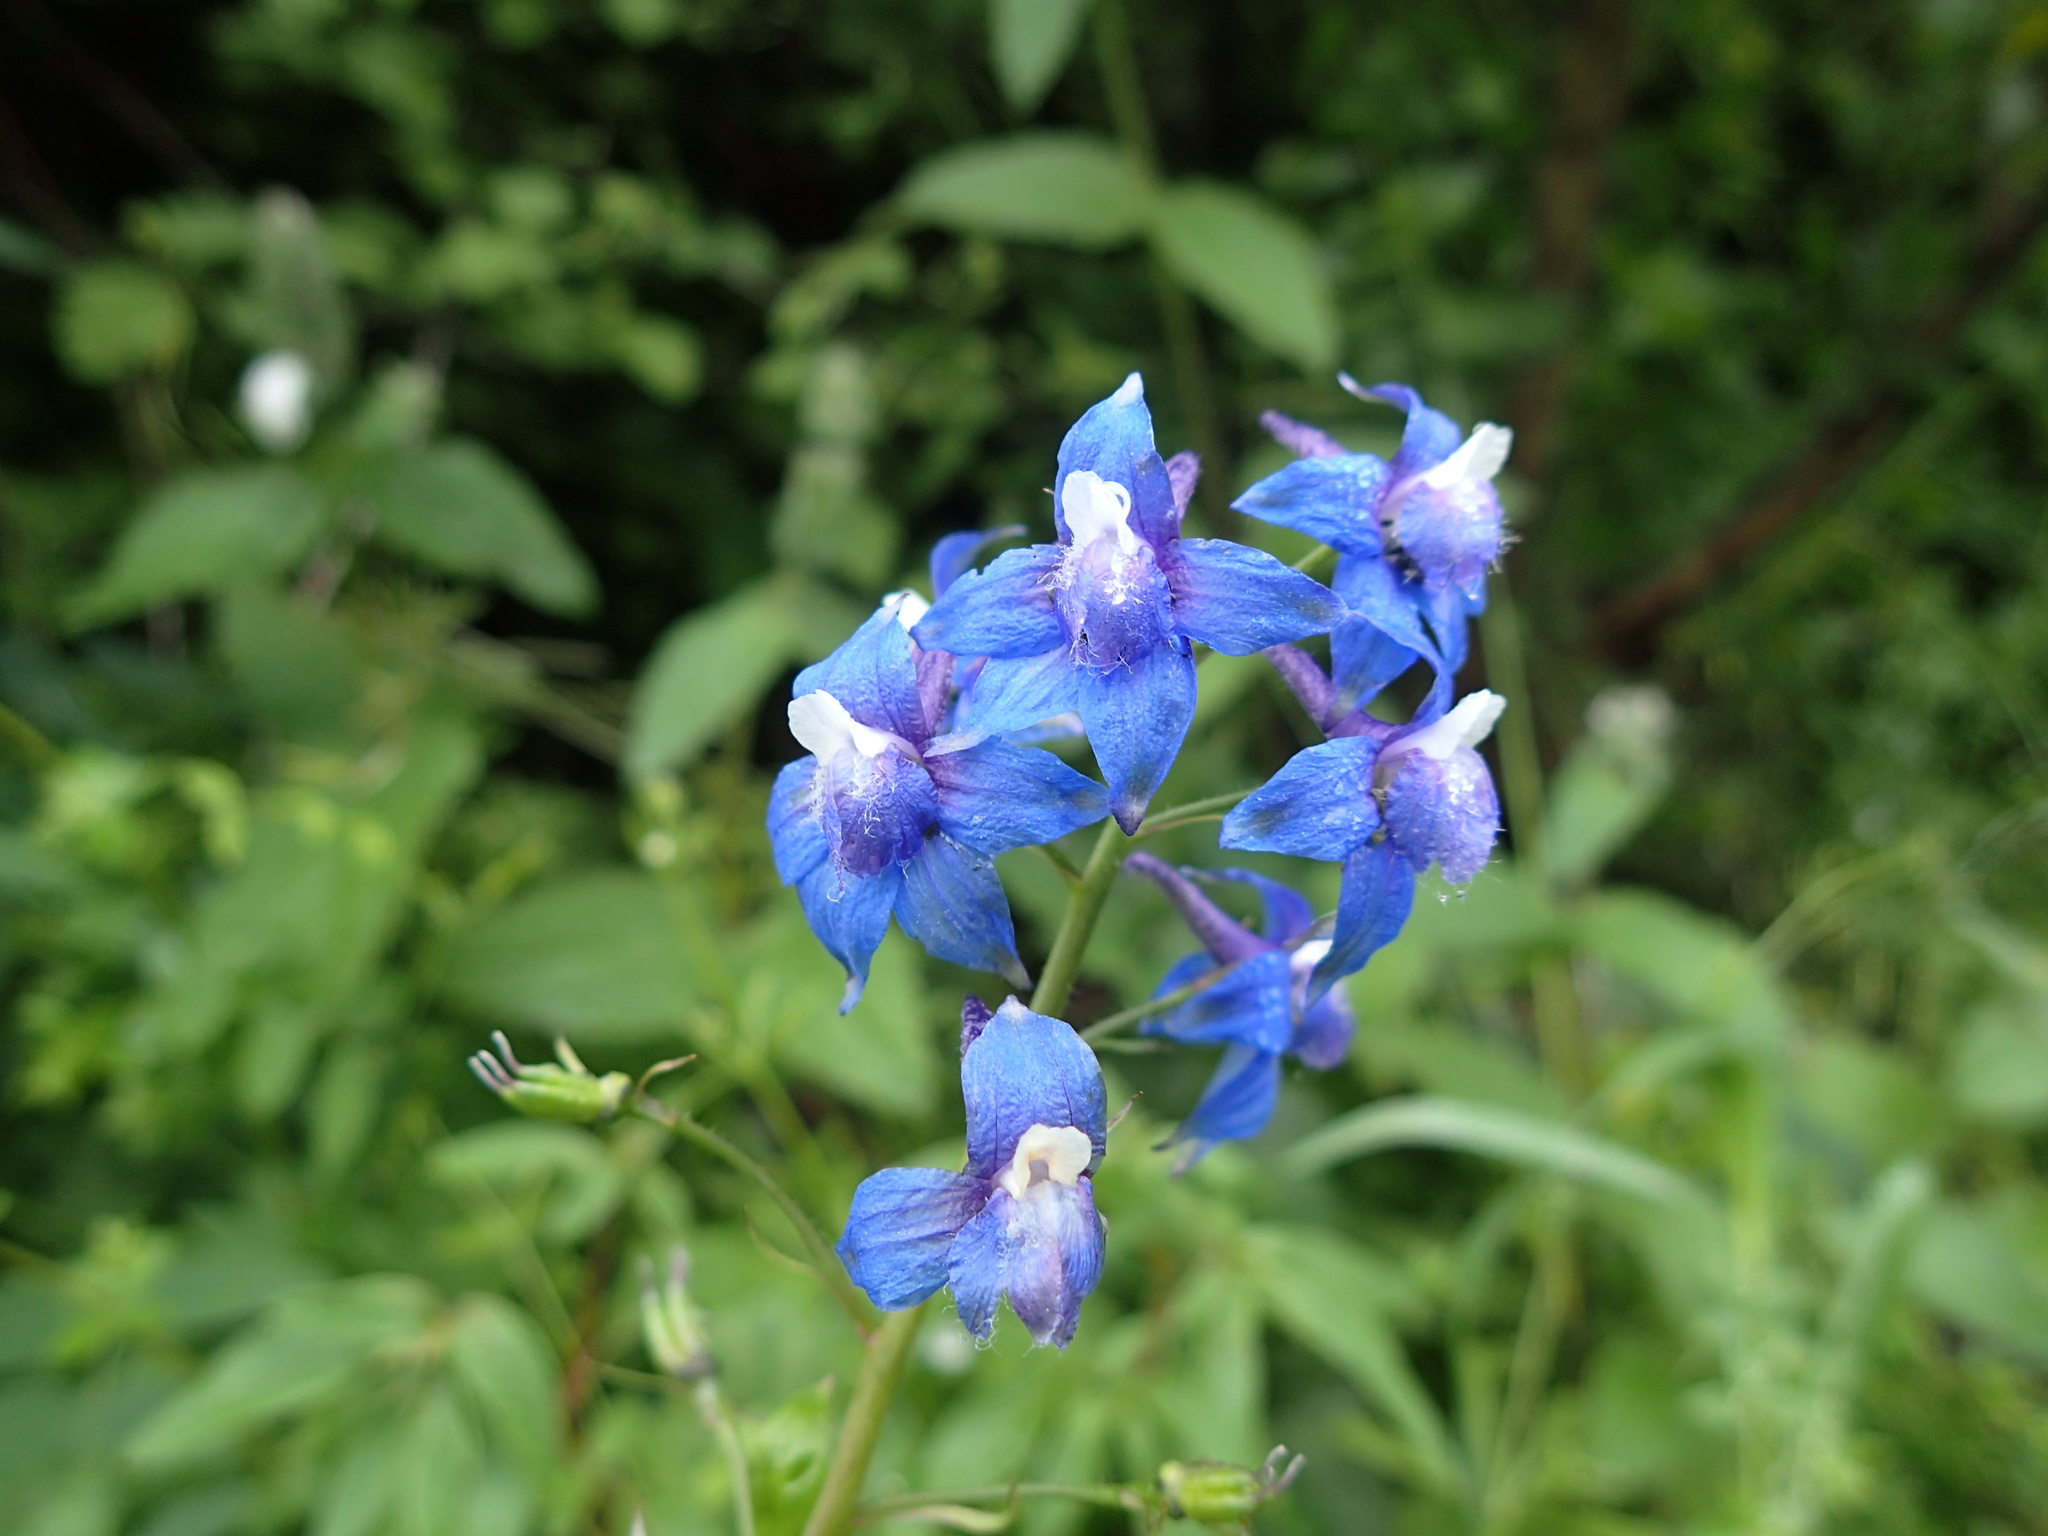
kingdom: Plantae
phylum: Tracheophyta
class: Magnoliopsida
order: Ranunculales
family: Ranunculaceae
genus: Delphinium
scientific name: Delphinium bakeri
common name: Baker's larkspur
